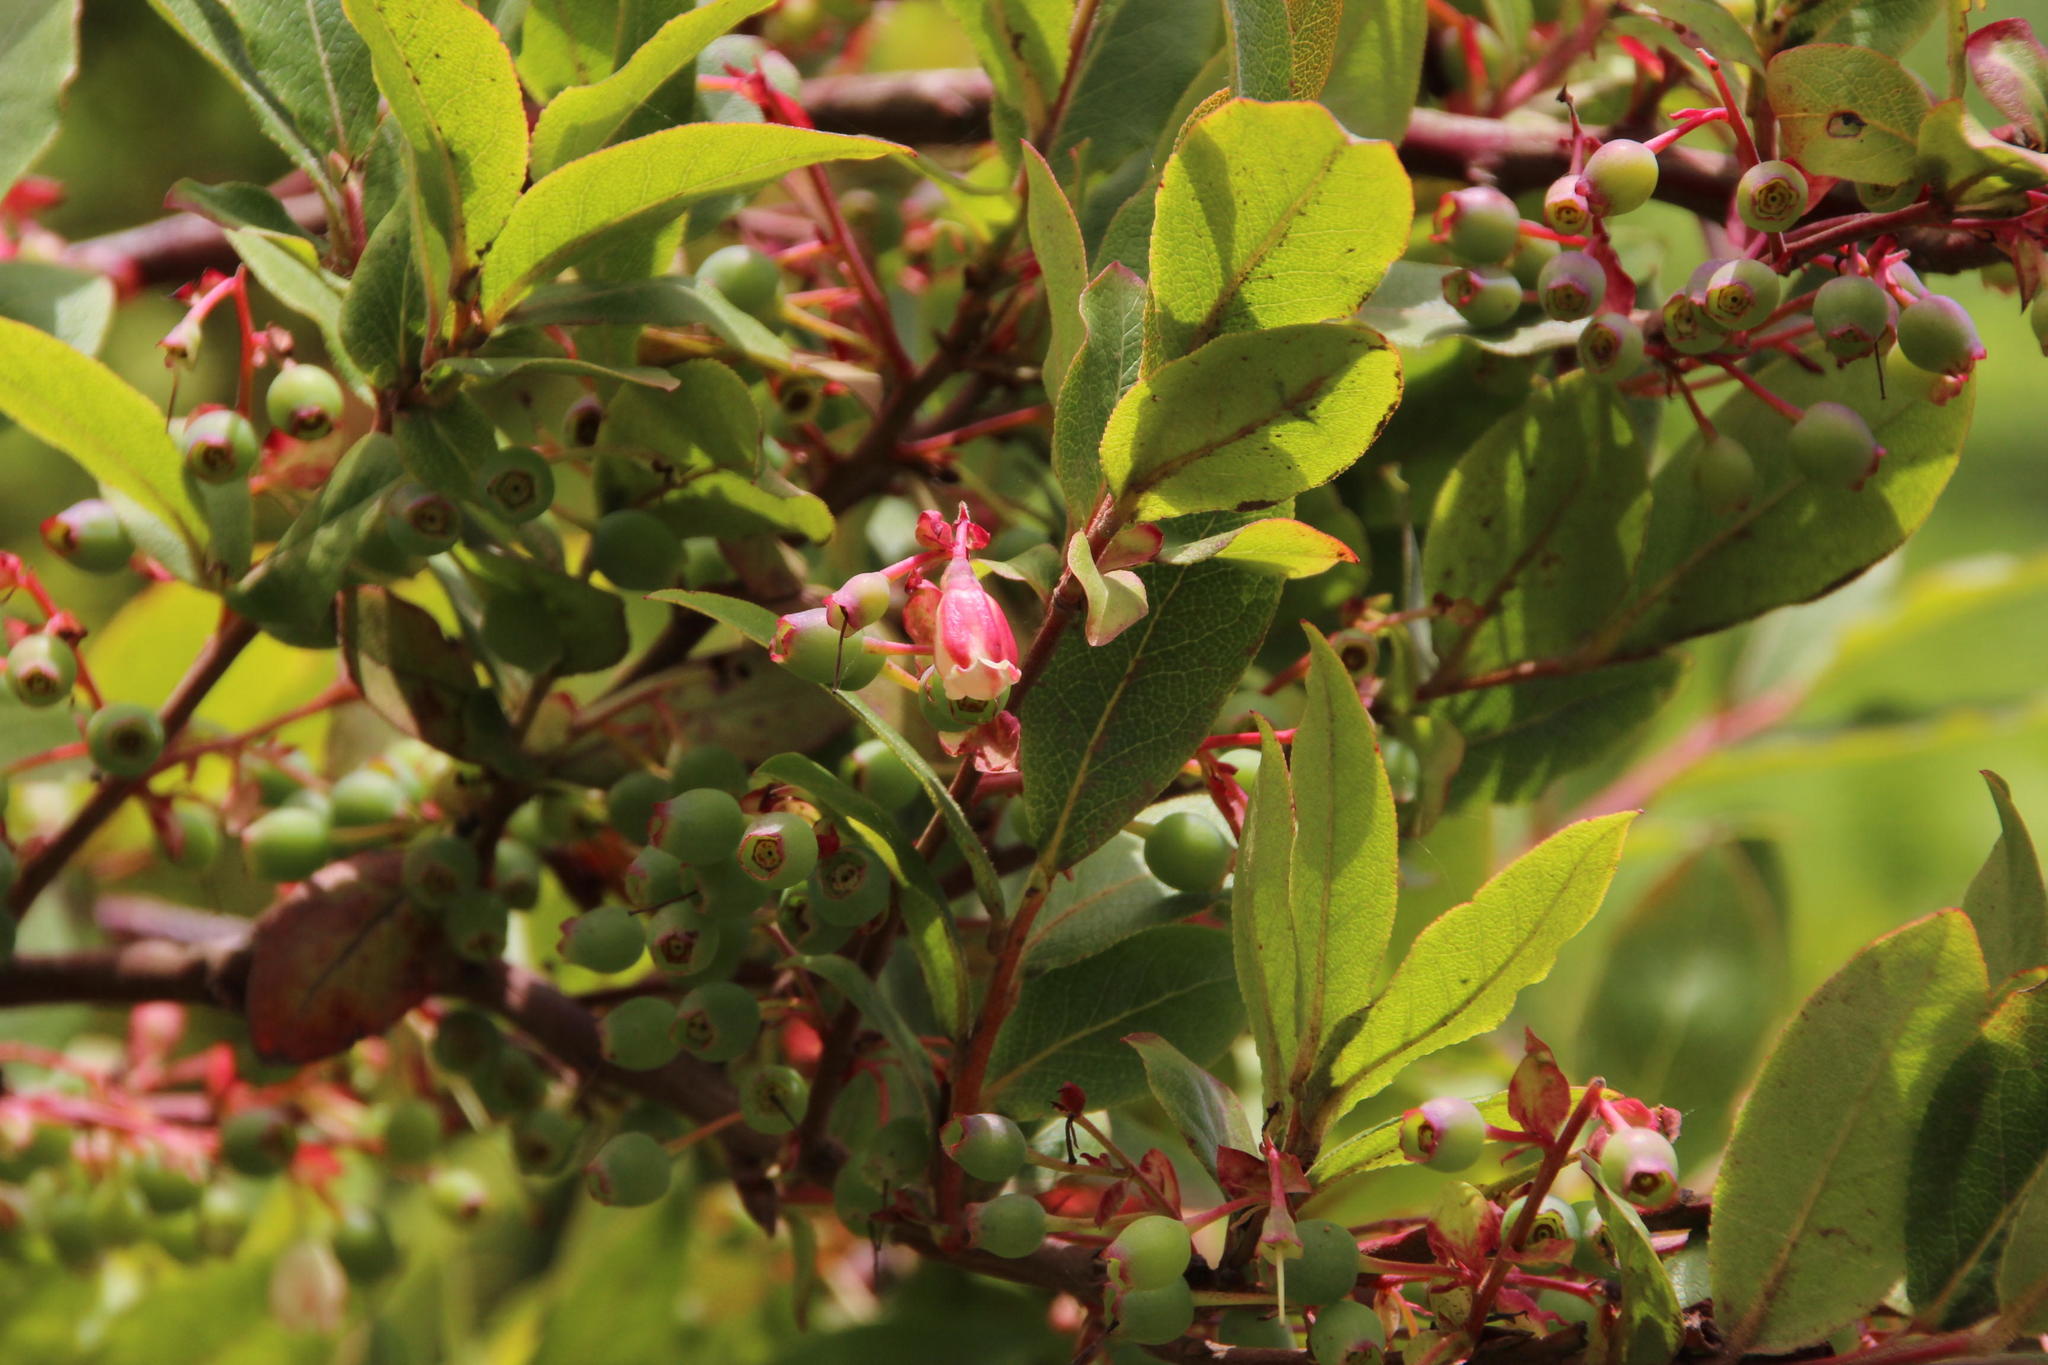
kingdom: Plantae
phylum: Tracheophyta
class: Magnoliopsida
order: Ericales
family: Ericaceae
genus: Vaccinium
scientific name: Vaccinium padifolium
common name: Madeiran blueberry
